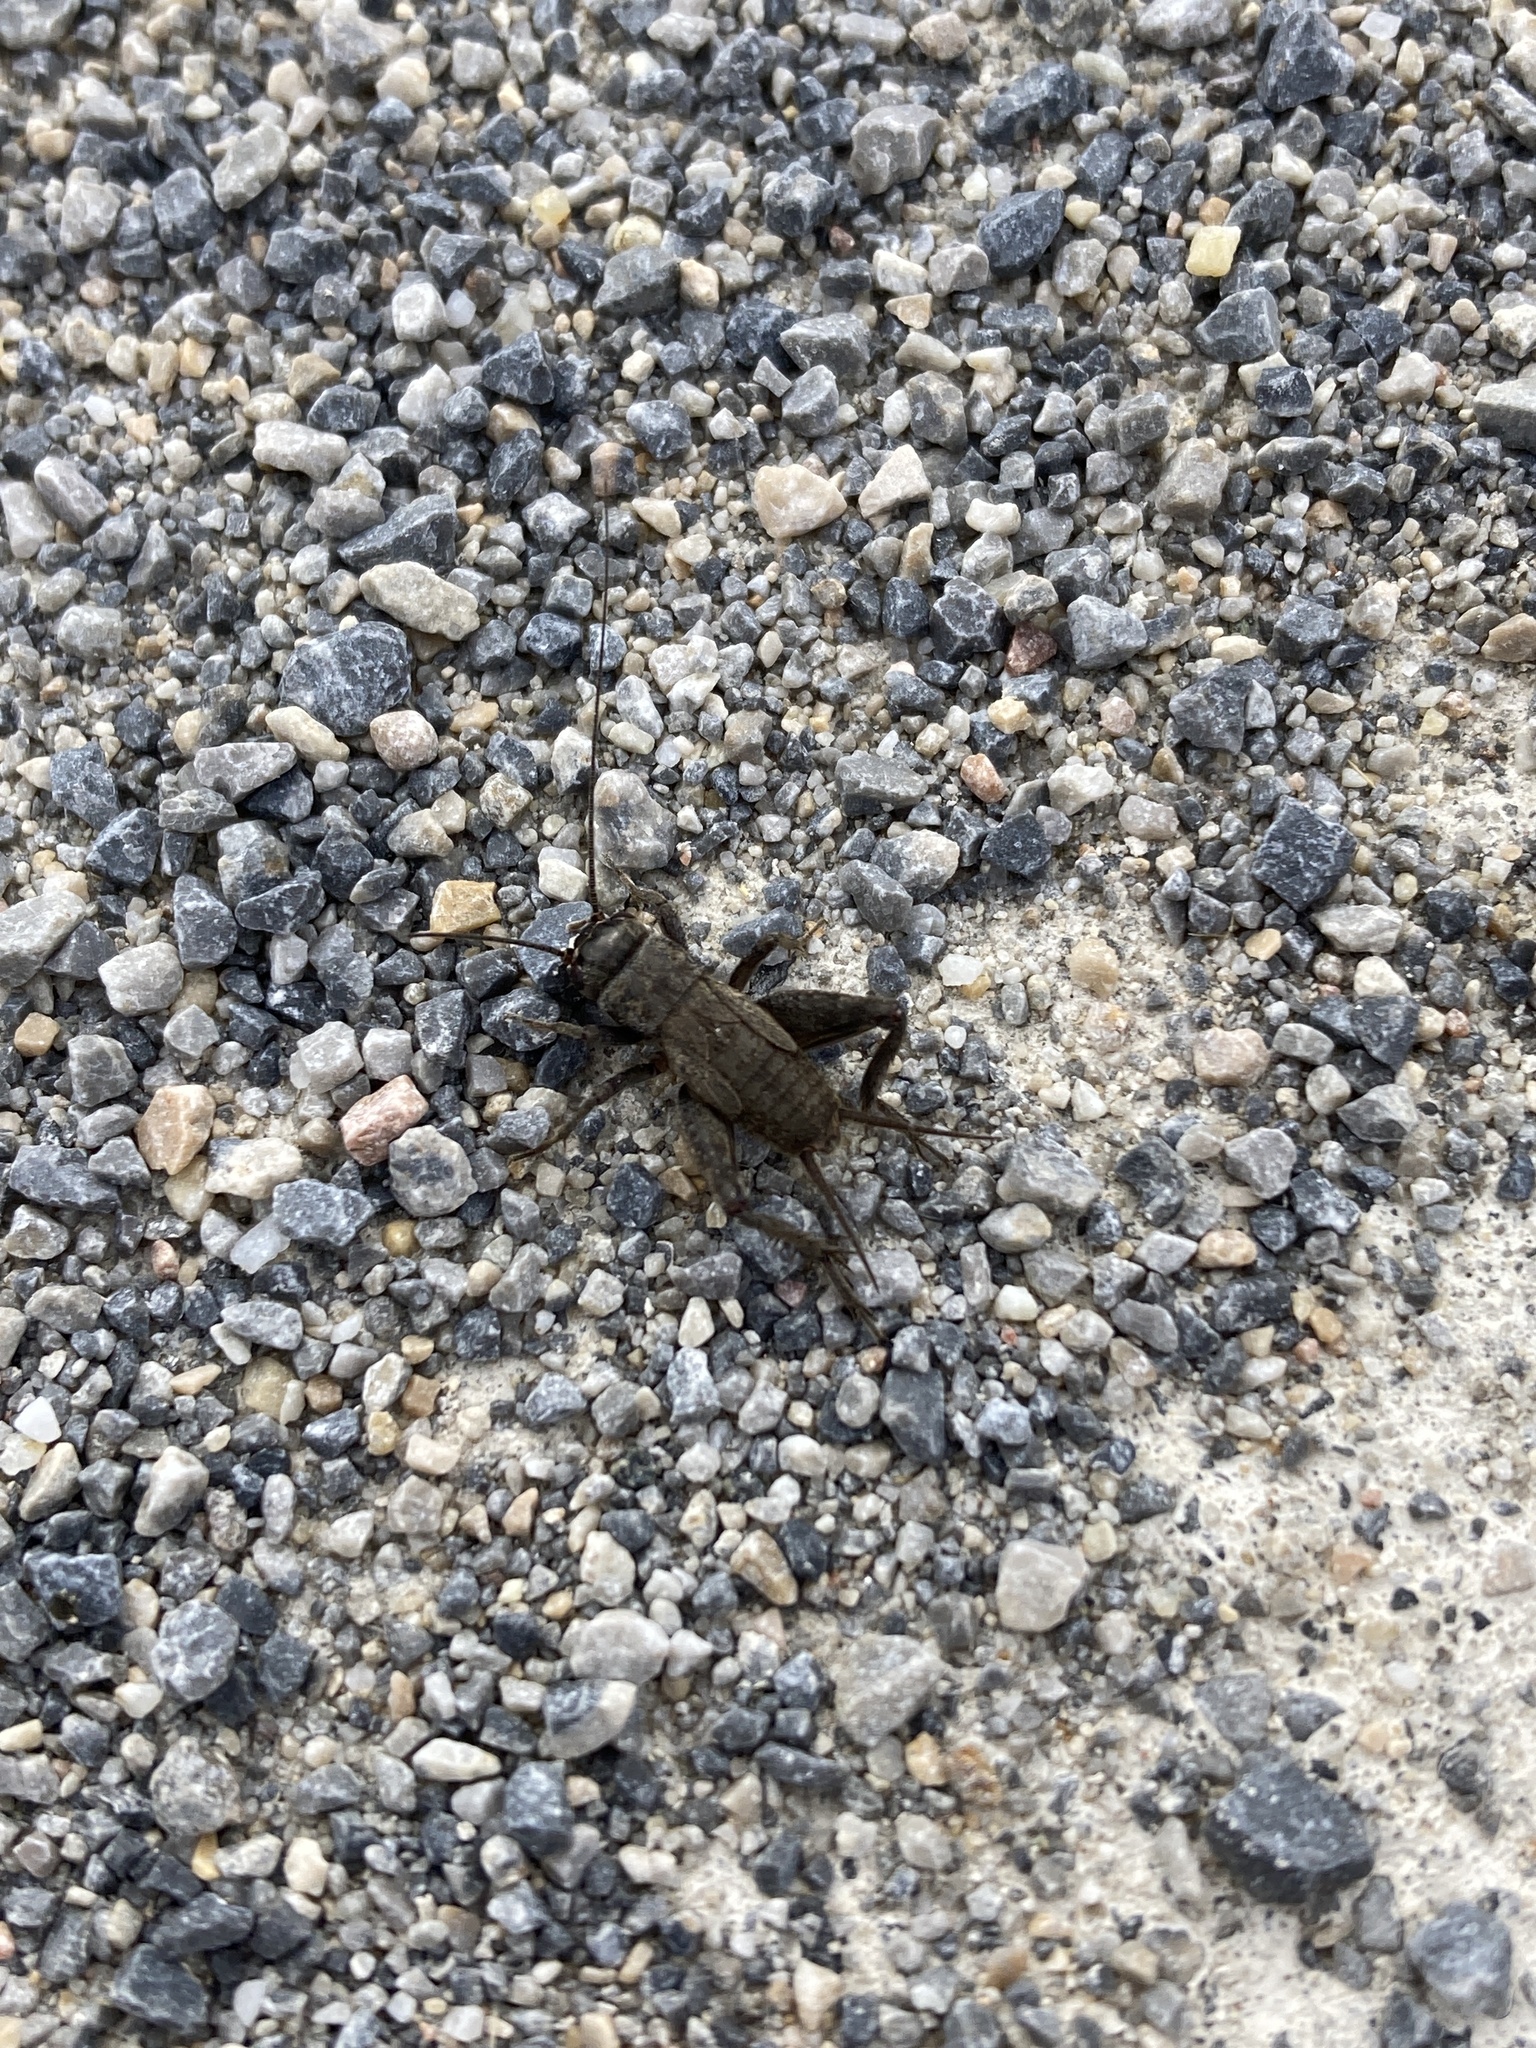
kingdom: Animalia
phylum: Arthropoda
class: Insecta
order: Orthoptera
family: Gryllidae
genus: Eumodicogryllus
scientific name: Eumodicogryllus bordigalensis
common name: Bordeaux cricket
